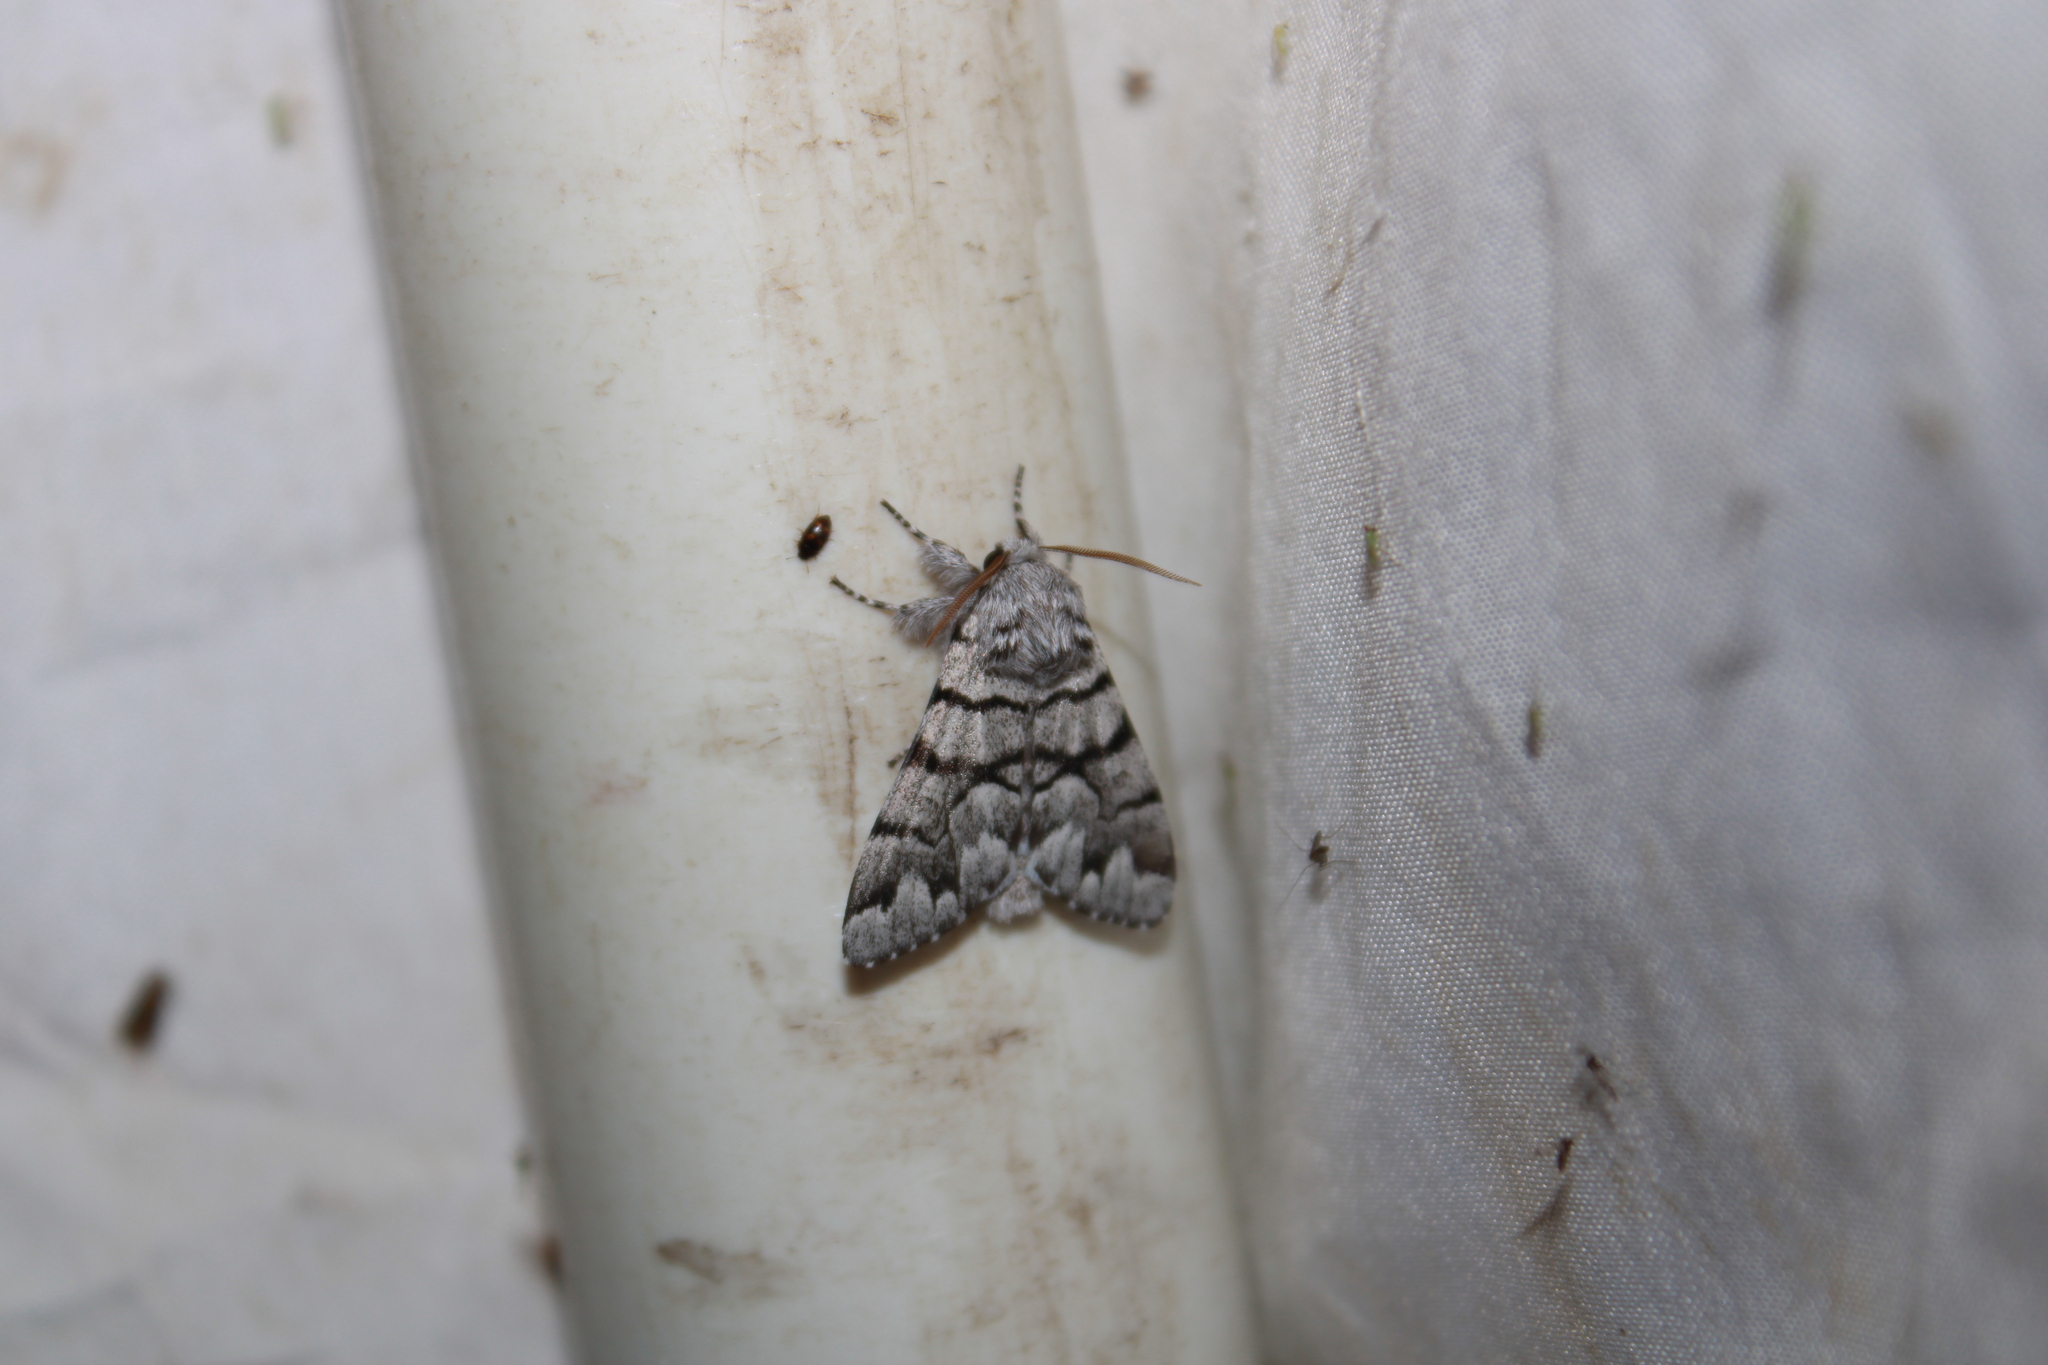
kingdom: Animalia
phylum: Arthropoda
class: Insecta
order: Lepidoptera
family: Noctuidae
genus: Panthea
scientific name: Panthea furcilla
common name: Eastern panthea moth
